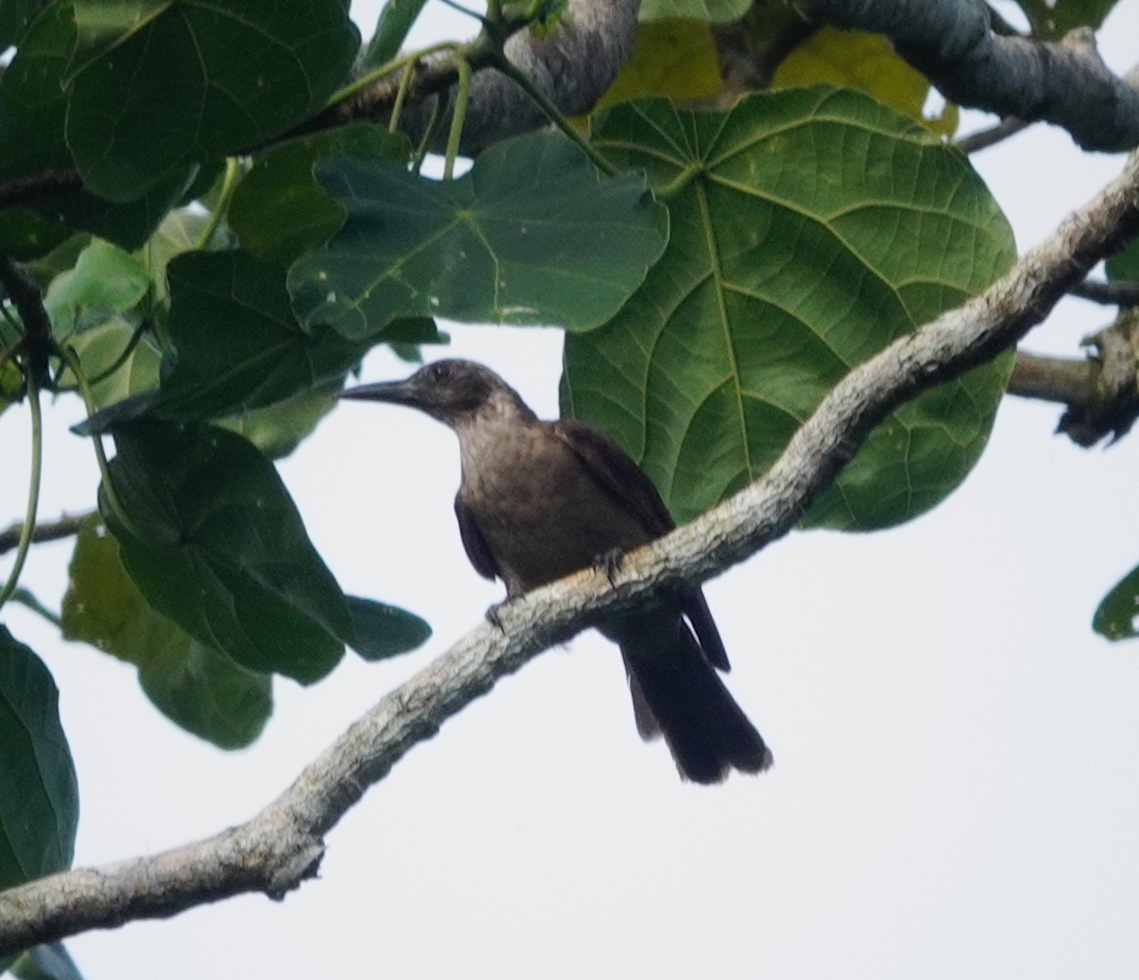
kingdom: Animalia
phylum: Chordata
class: Aves
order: Passeriformes
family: Oriolidae
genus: Oriolus
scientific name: Oriolus bouroensis
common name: Black-eared oriole
